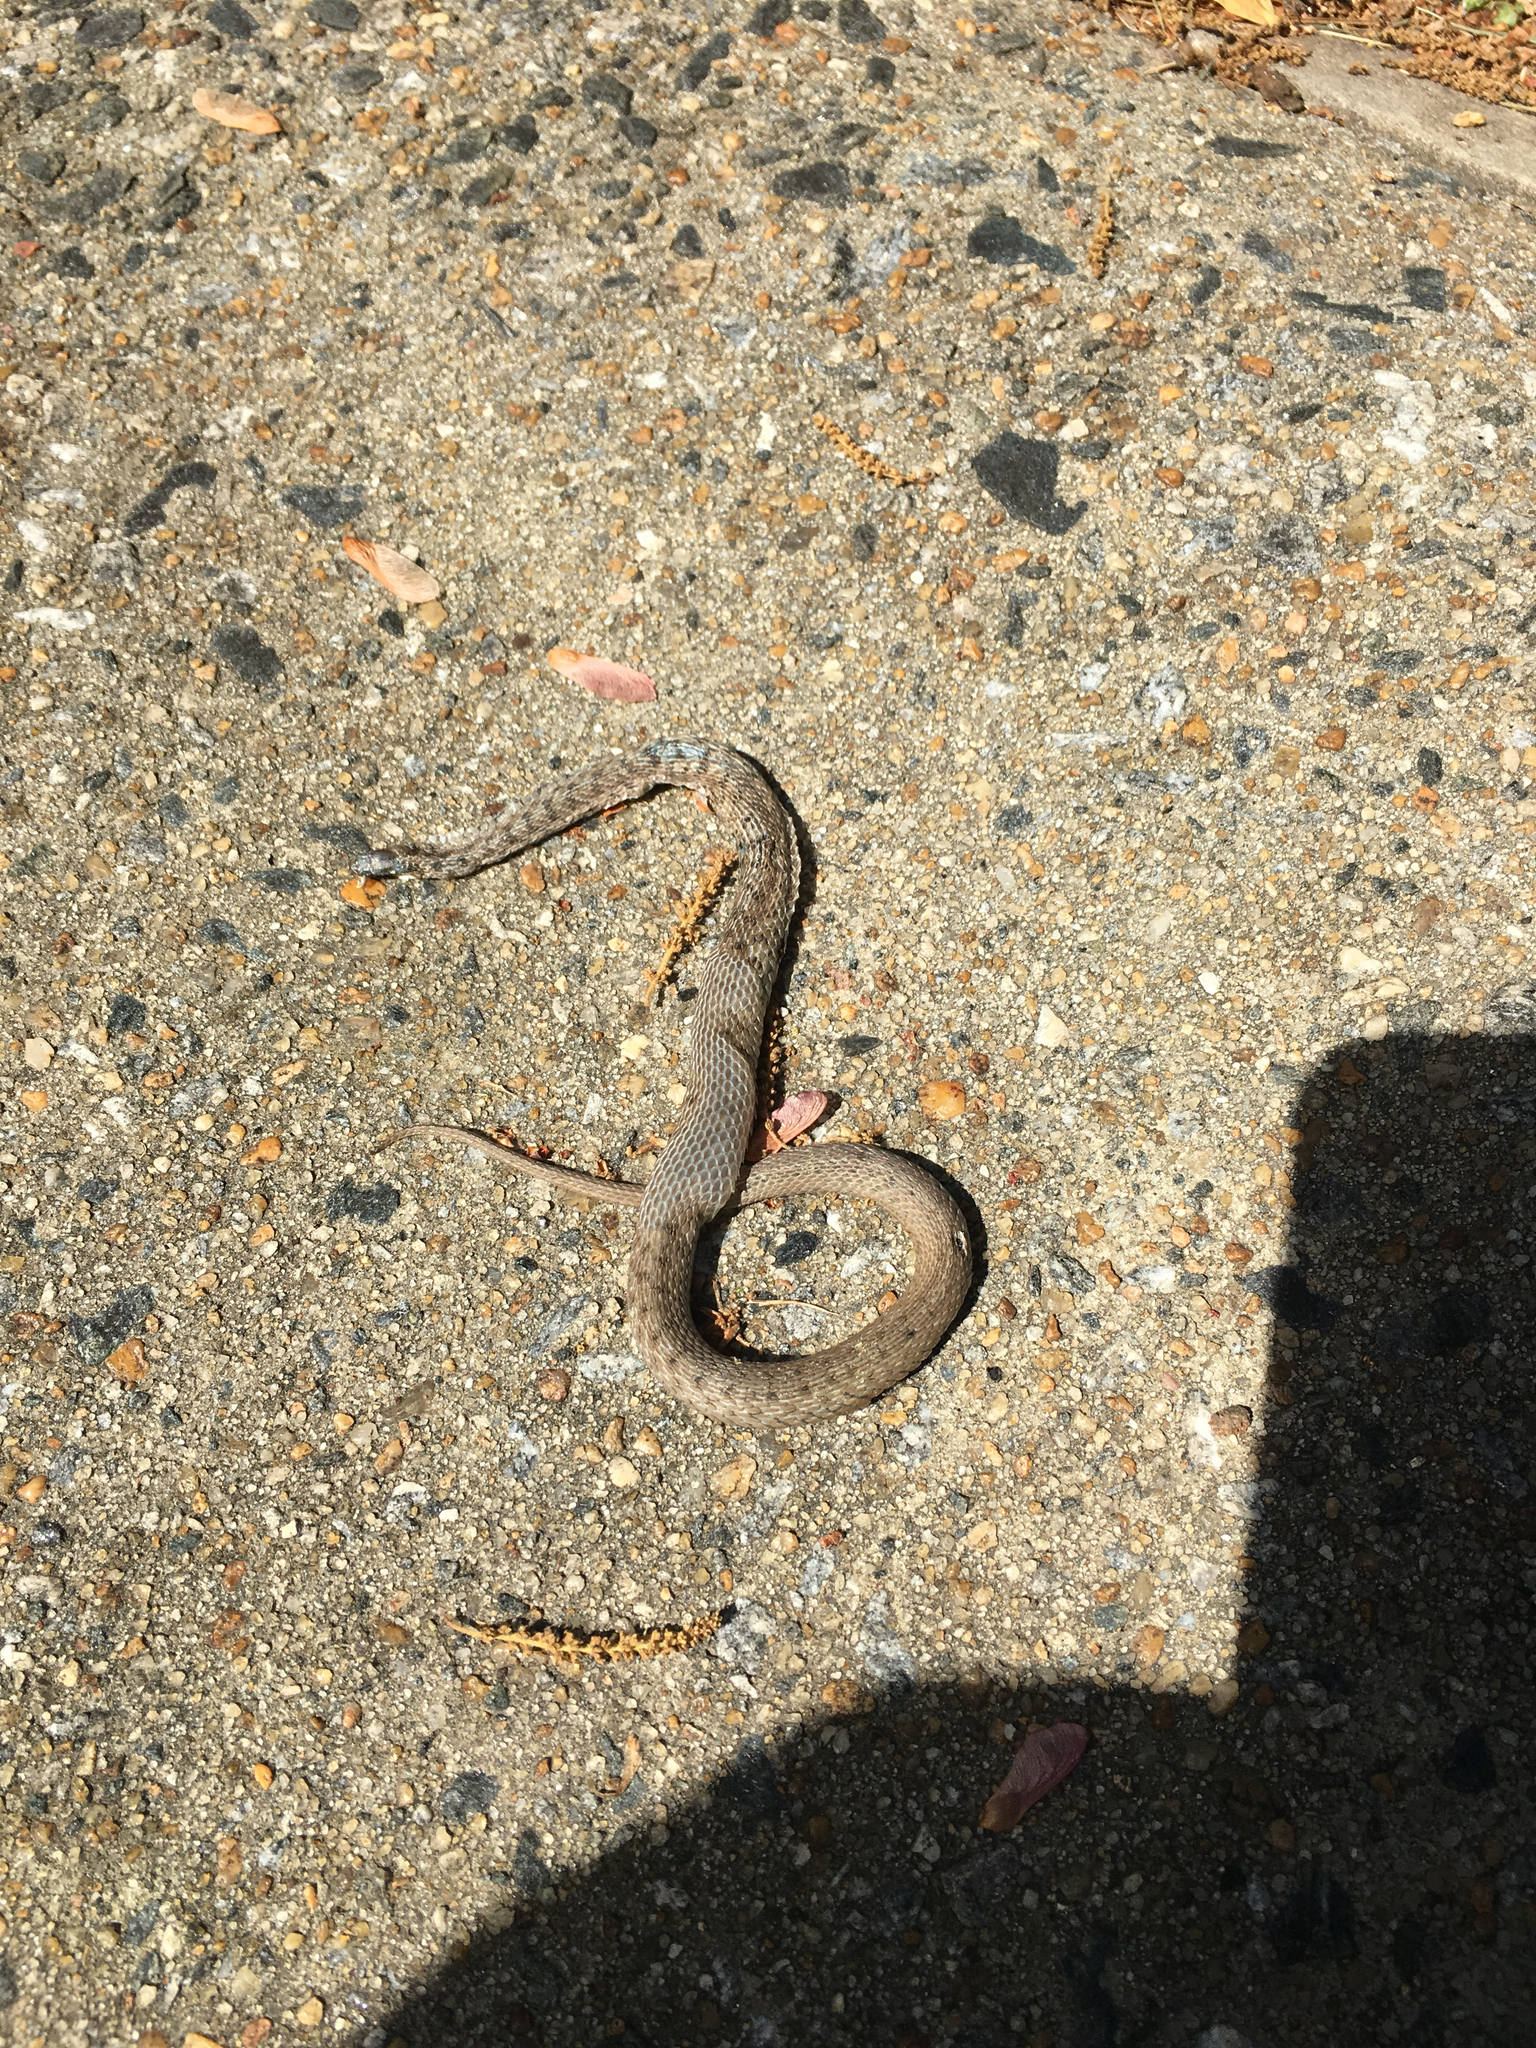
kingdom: Animalia
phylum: Chordata
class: Squamata
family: Colubridae
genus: Storeria
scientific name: Storeria dekayi
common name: (dekay’s) brown snake
